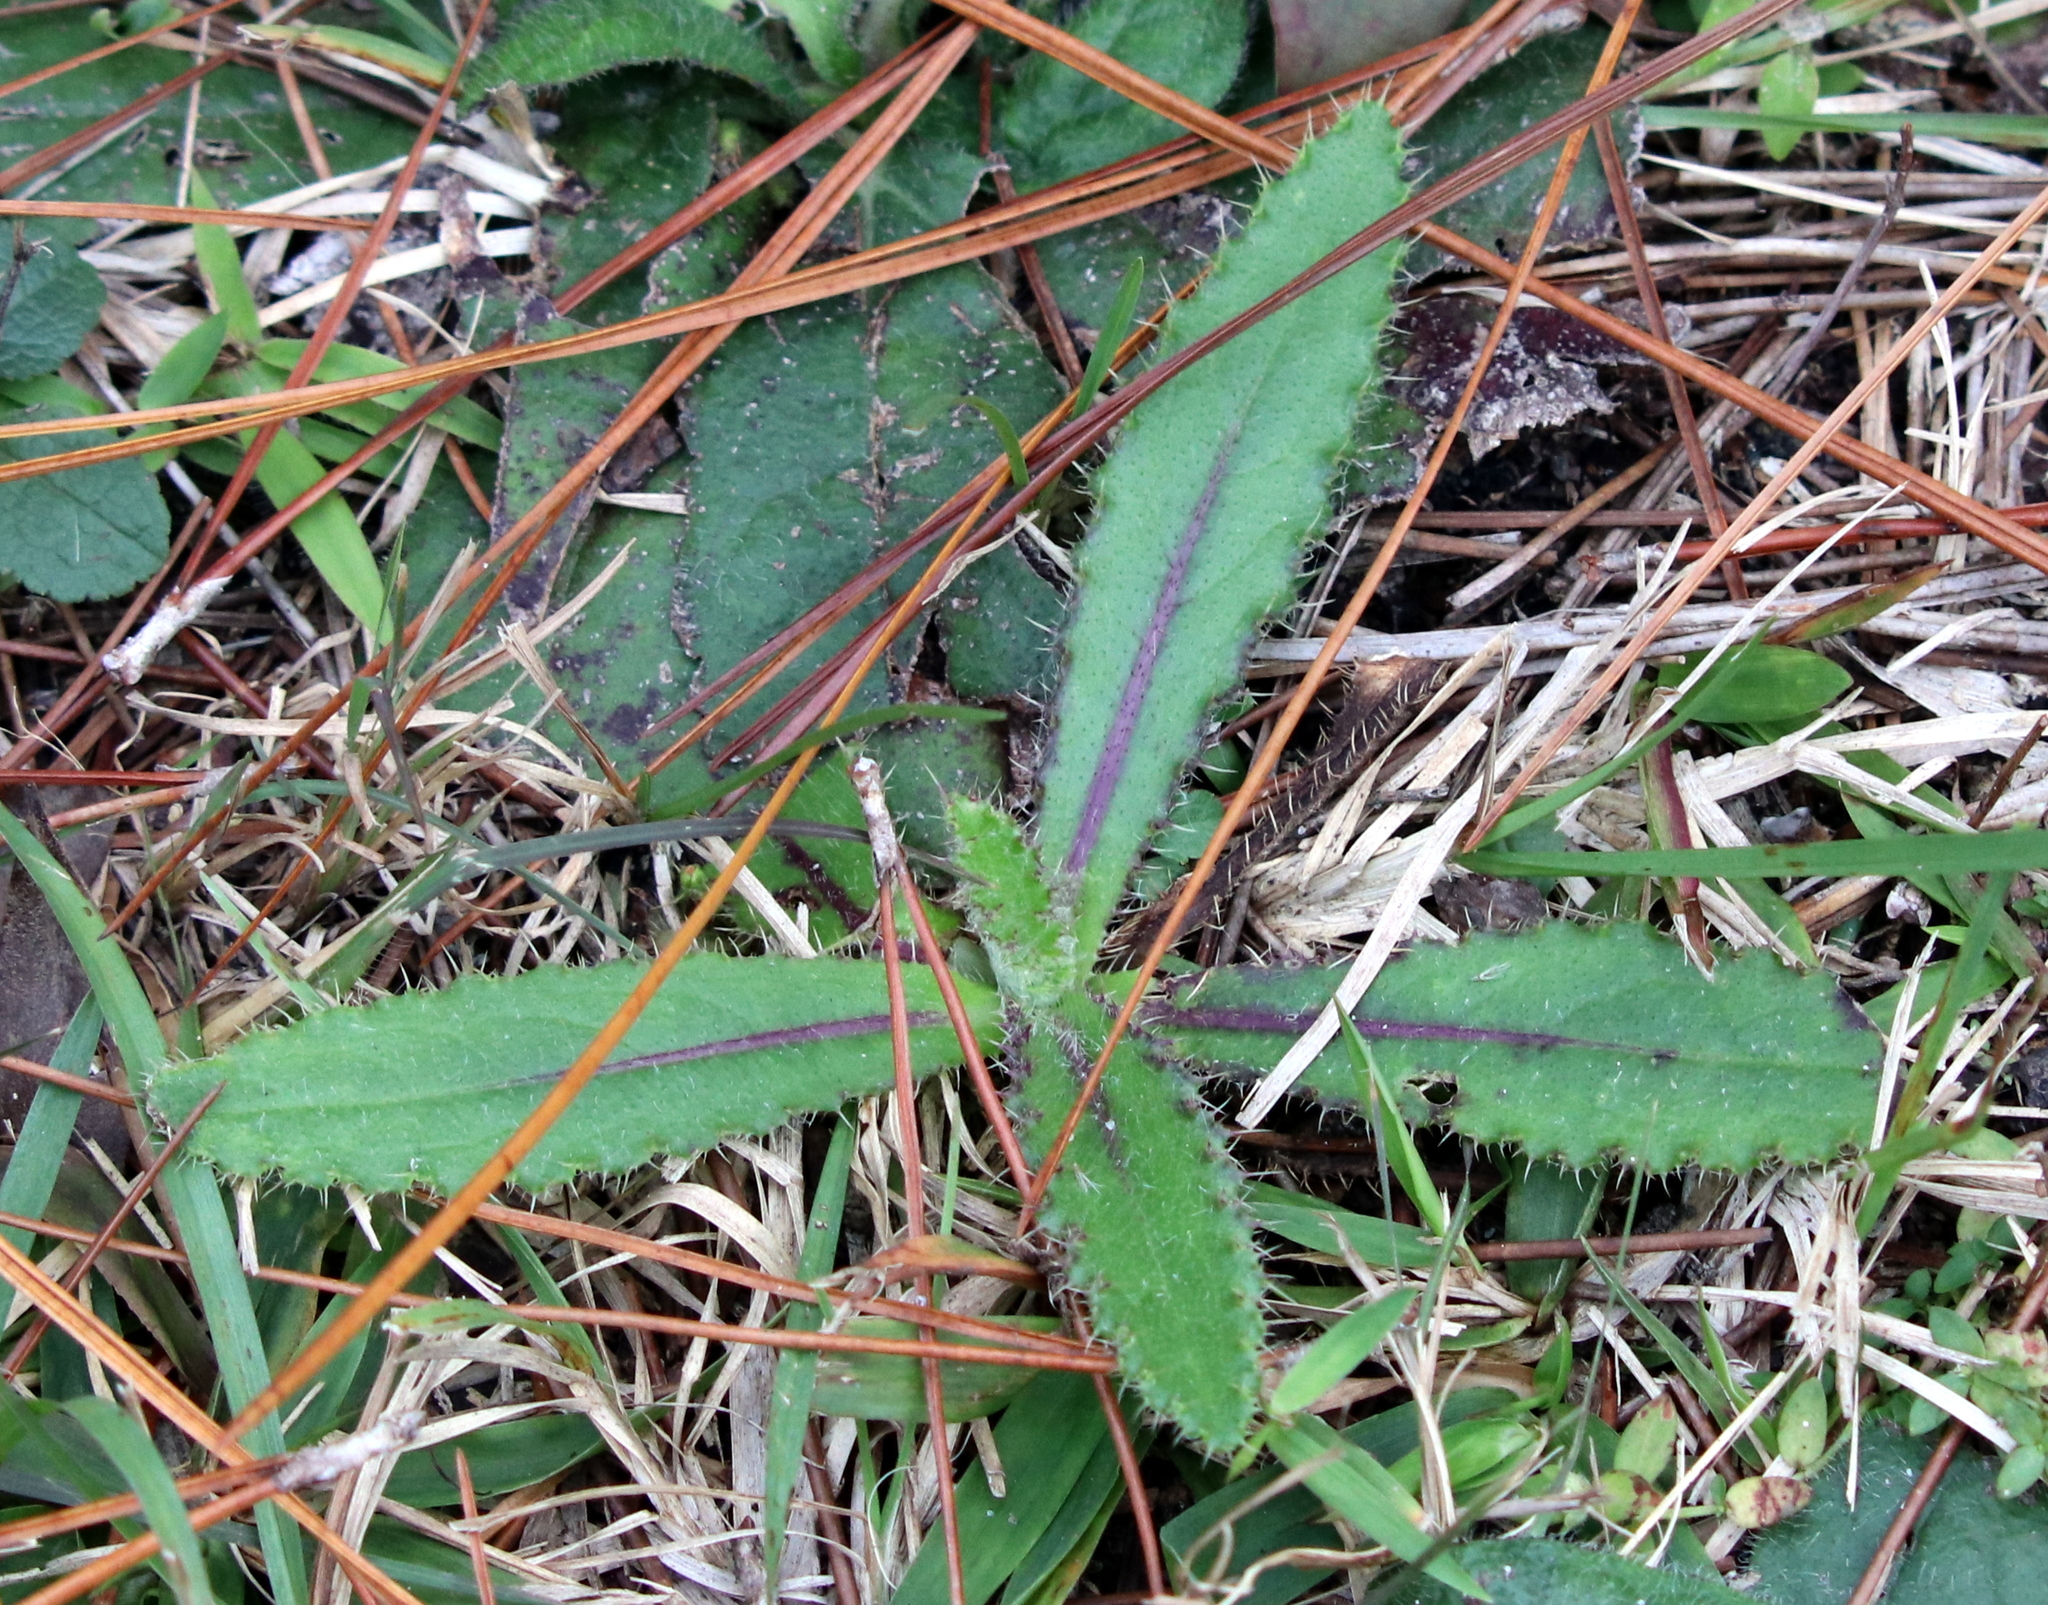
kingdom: Plantae
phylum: Tracheophyta
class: Magnoliopsida
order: Asterales
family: Asteraceae
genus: Cirsium
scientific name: Cirsium horridulum
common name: Bristly thistle
